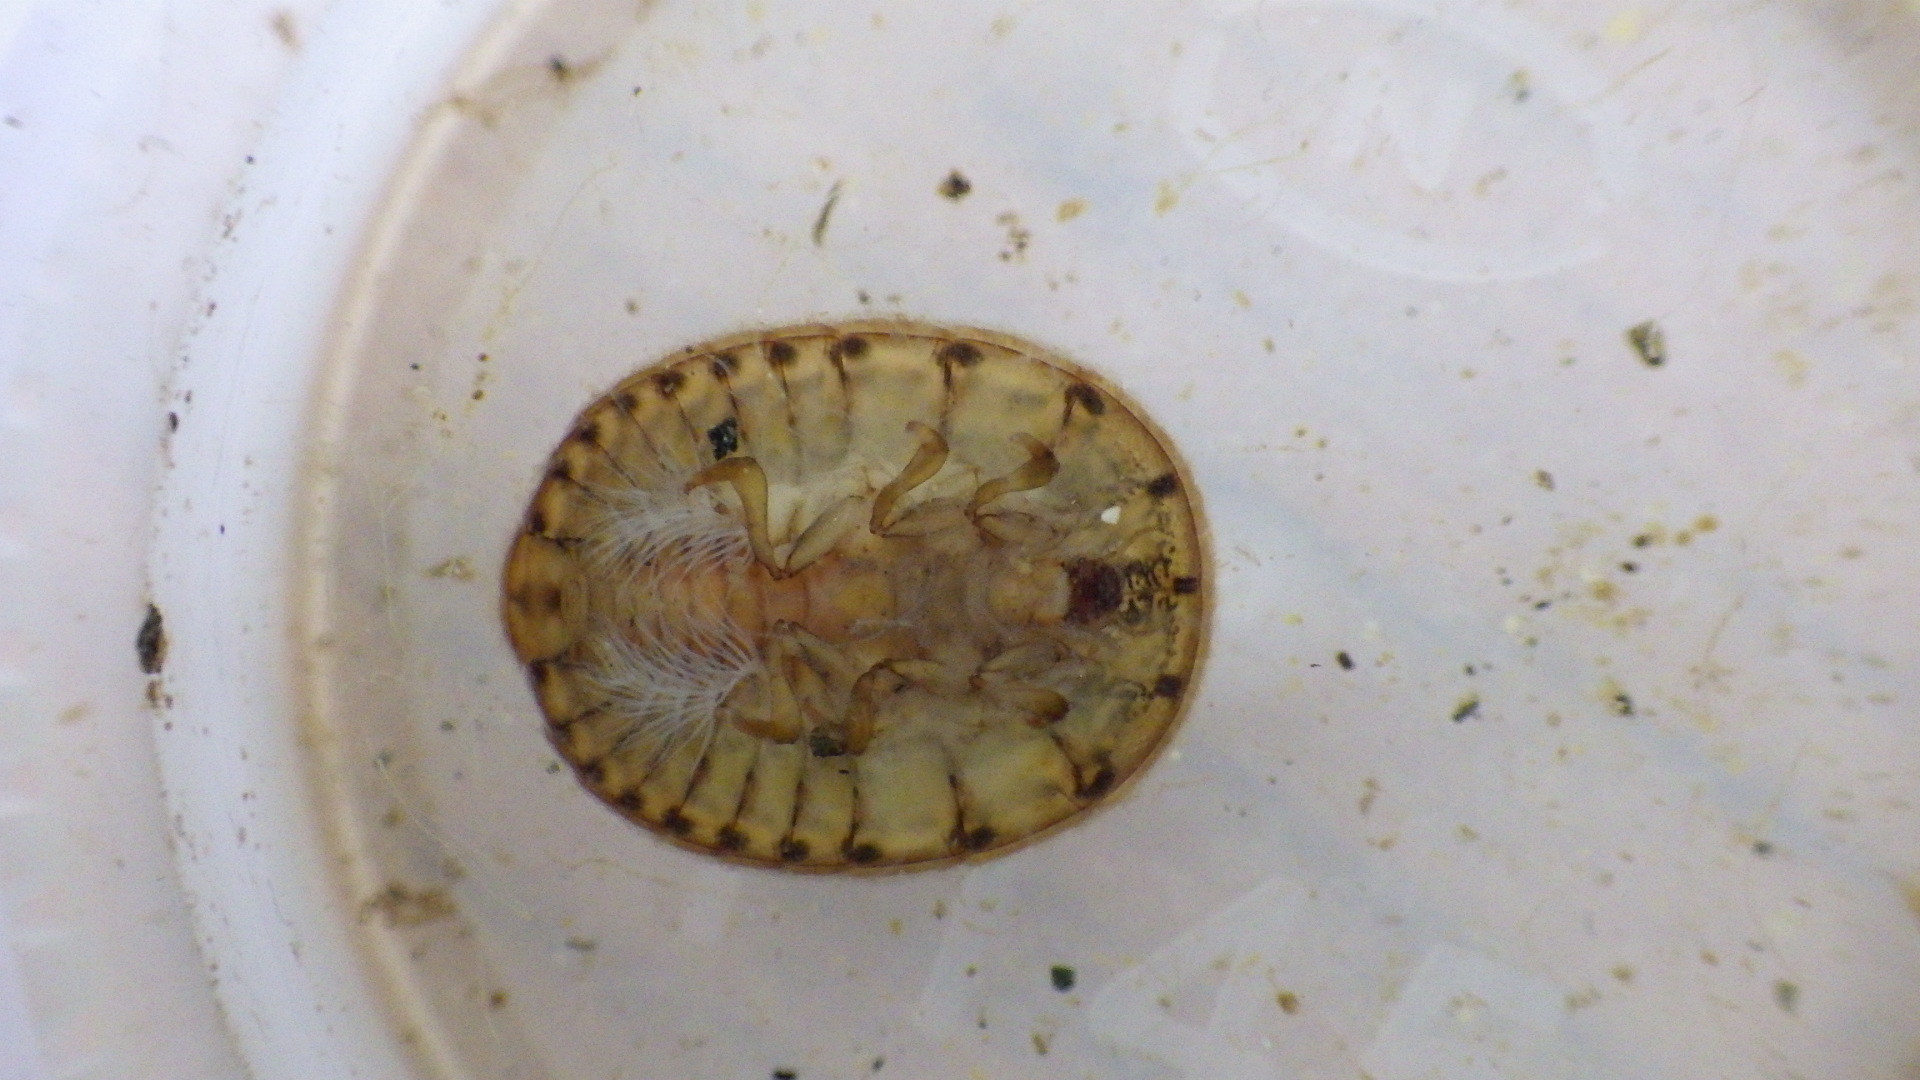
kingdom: Animalia
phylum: Arthropoda
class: Insecta
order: Coleoptera
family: Psephenidae
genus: Psephenus
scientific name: Psephenus herricki
